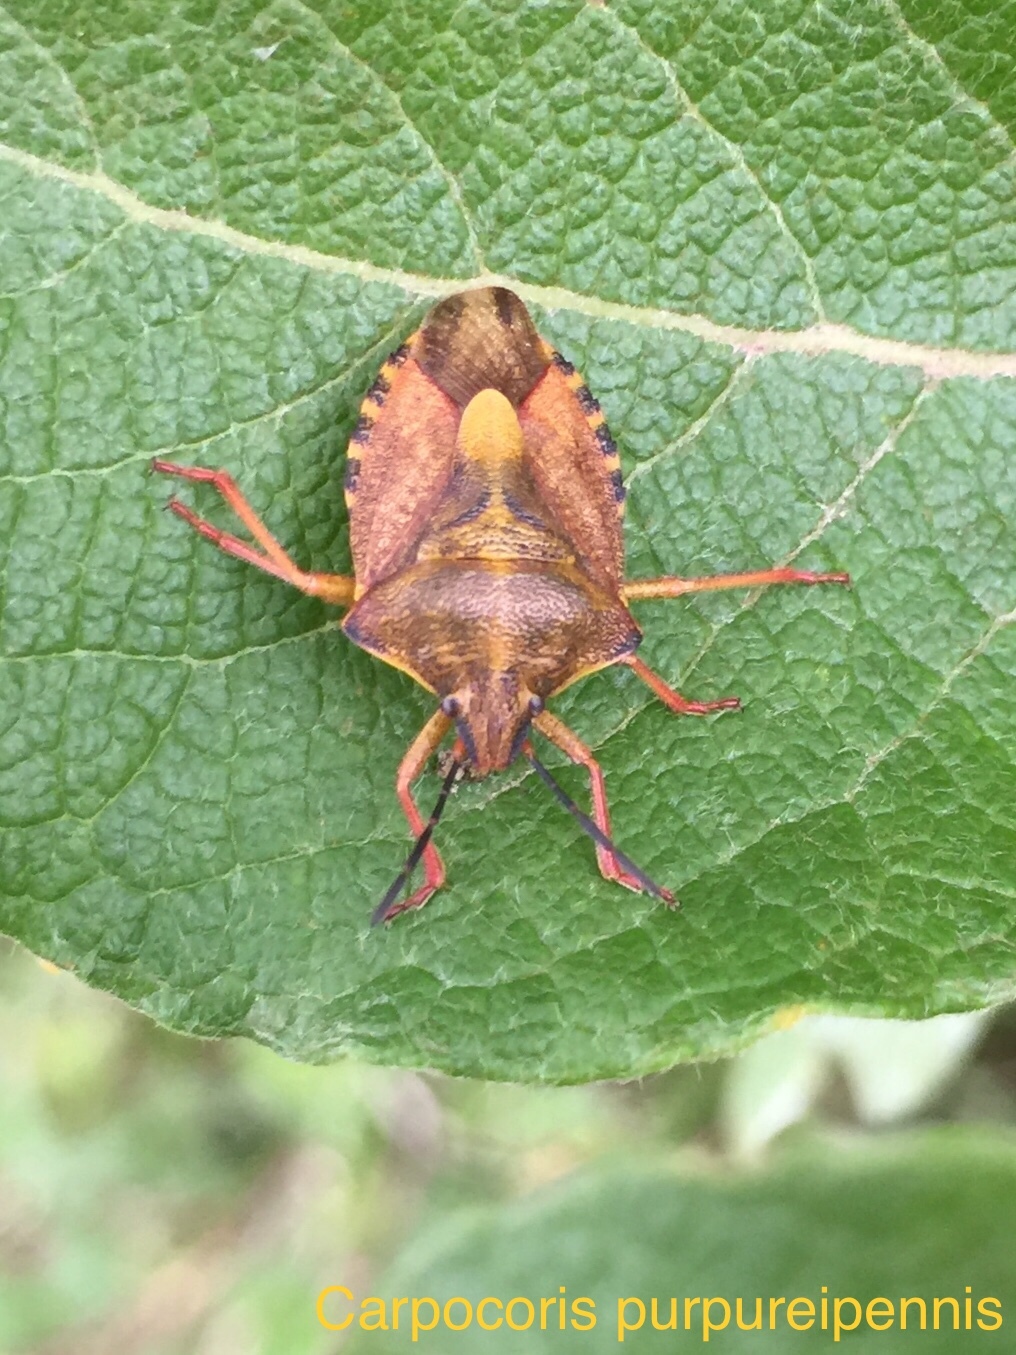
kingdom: Animalia
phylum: Arthropoda
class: Insecta
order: Hemiptera
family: Pentatomidae
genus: Carpocoris
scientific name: Carpocoris purpureipennis
